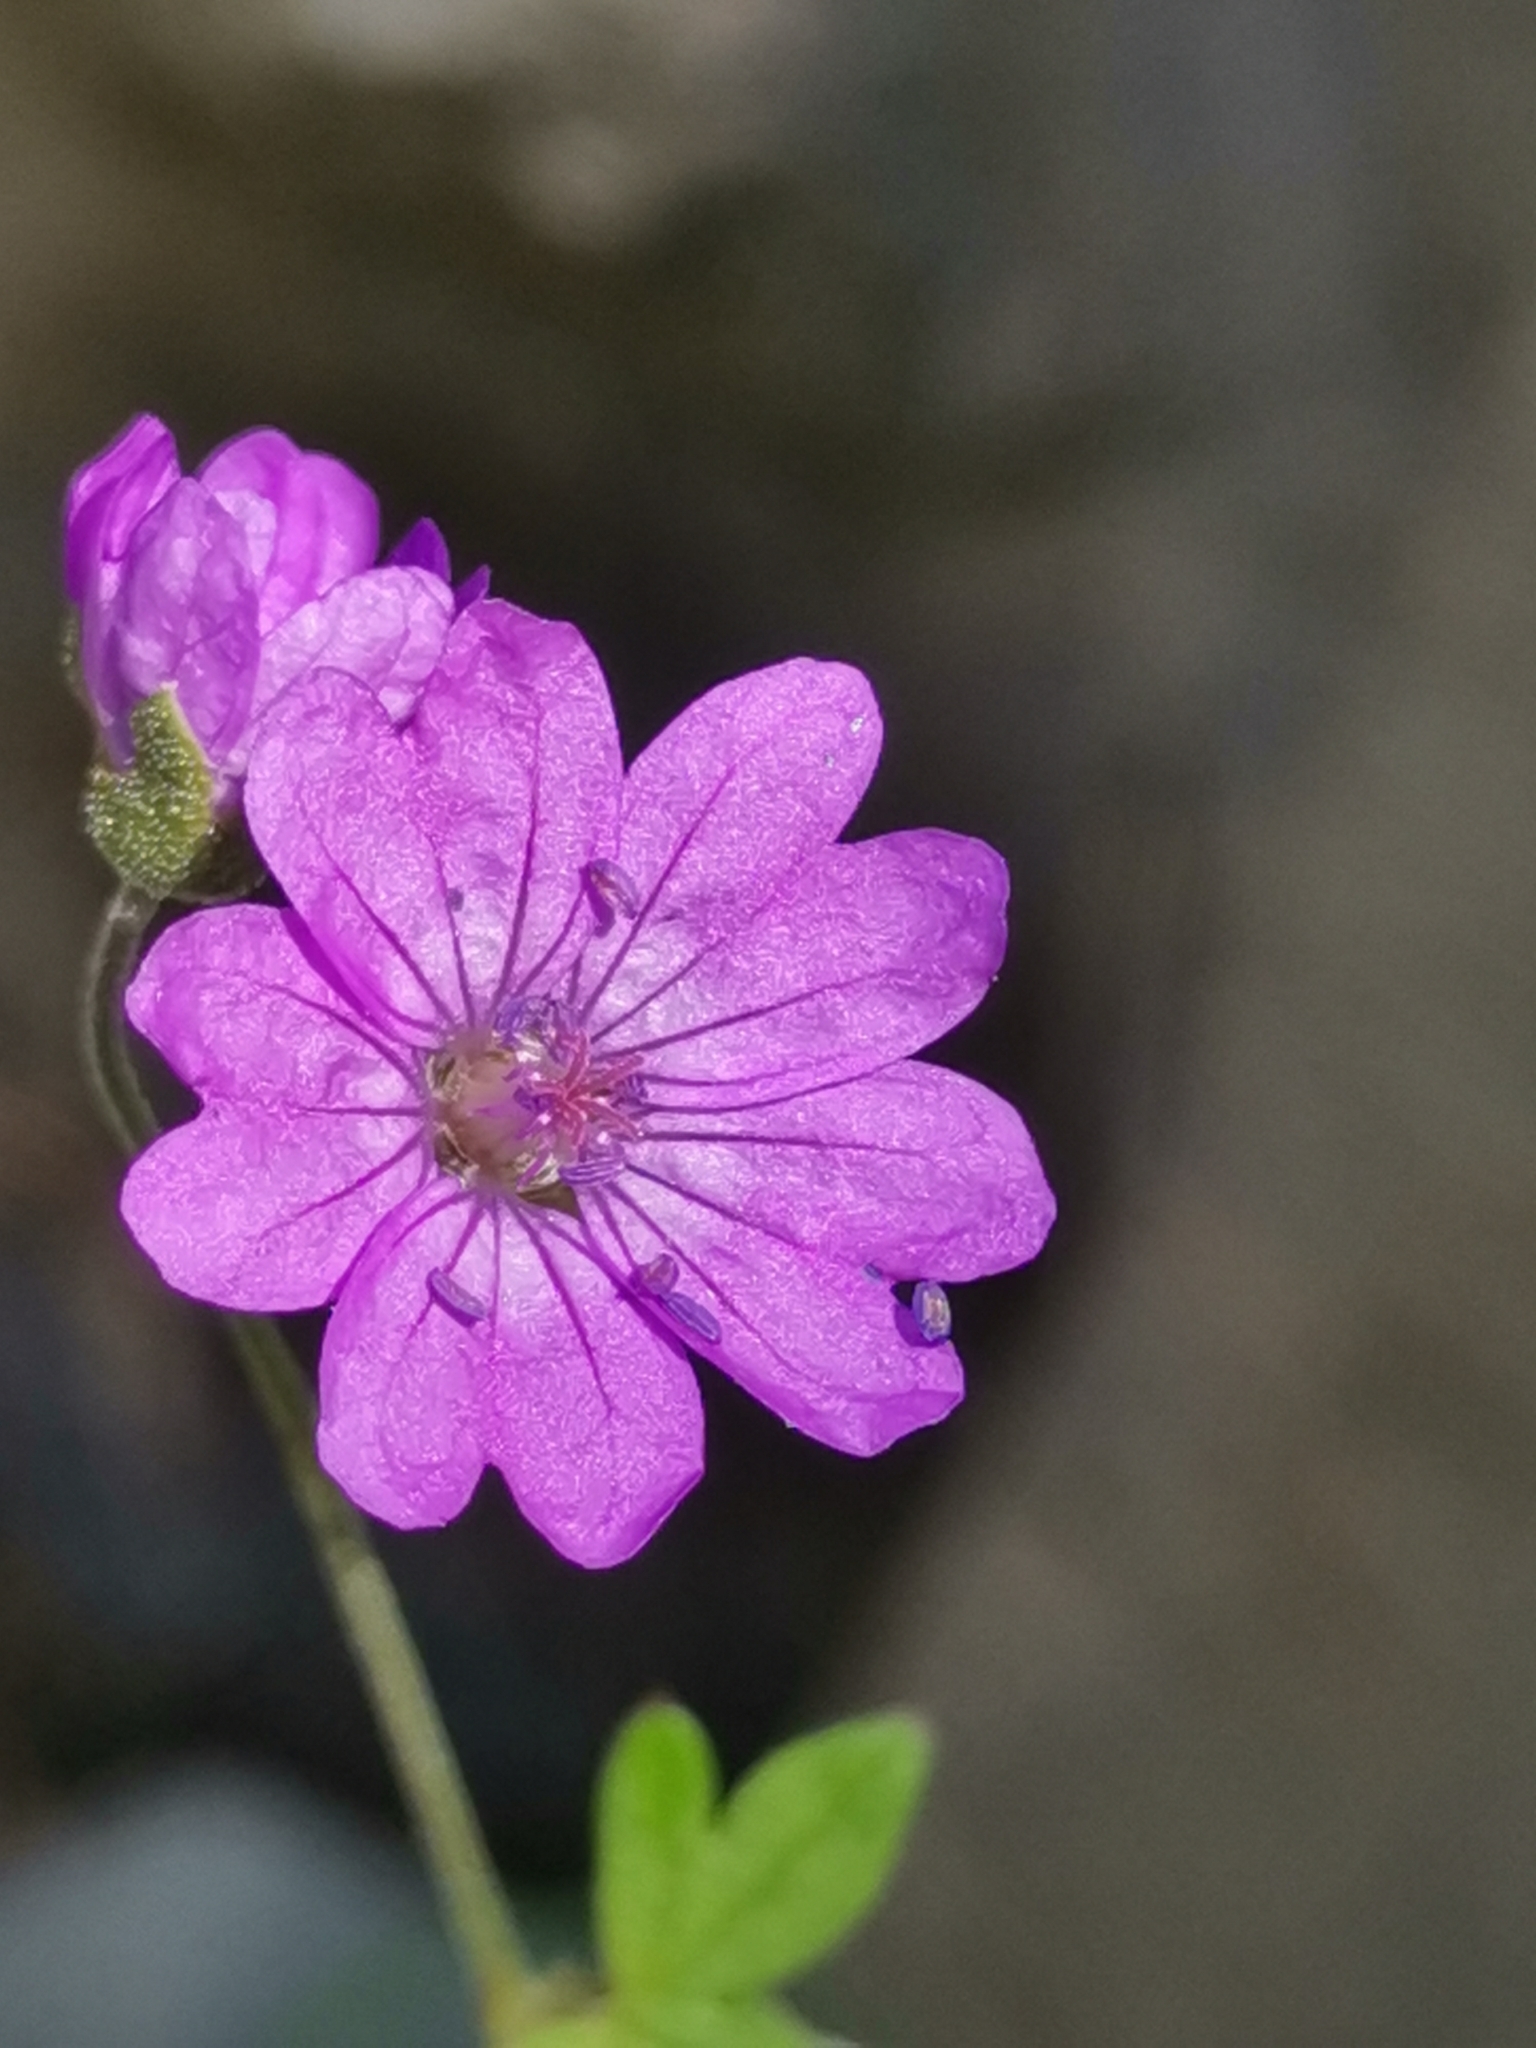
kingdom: Plantae
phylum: Tracheophyta
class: Magnoliopsida
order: Geraniales
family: Geraniaceae
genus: Geranium
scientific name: Geranium pyrenaicum
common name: Hedgerow crane's-bill
